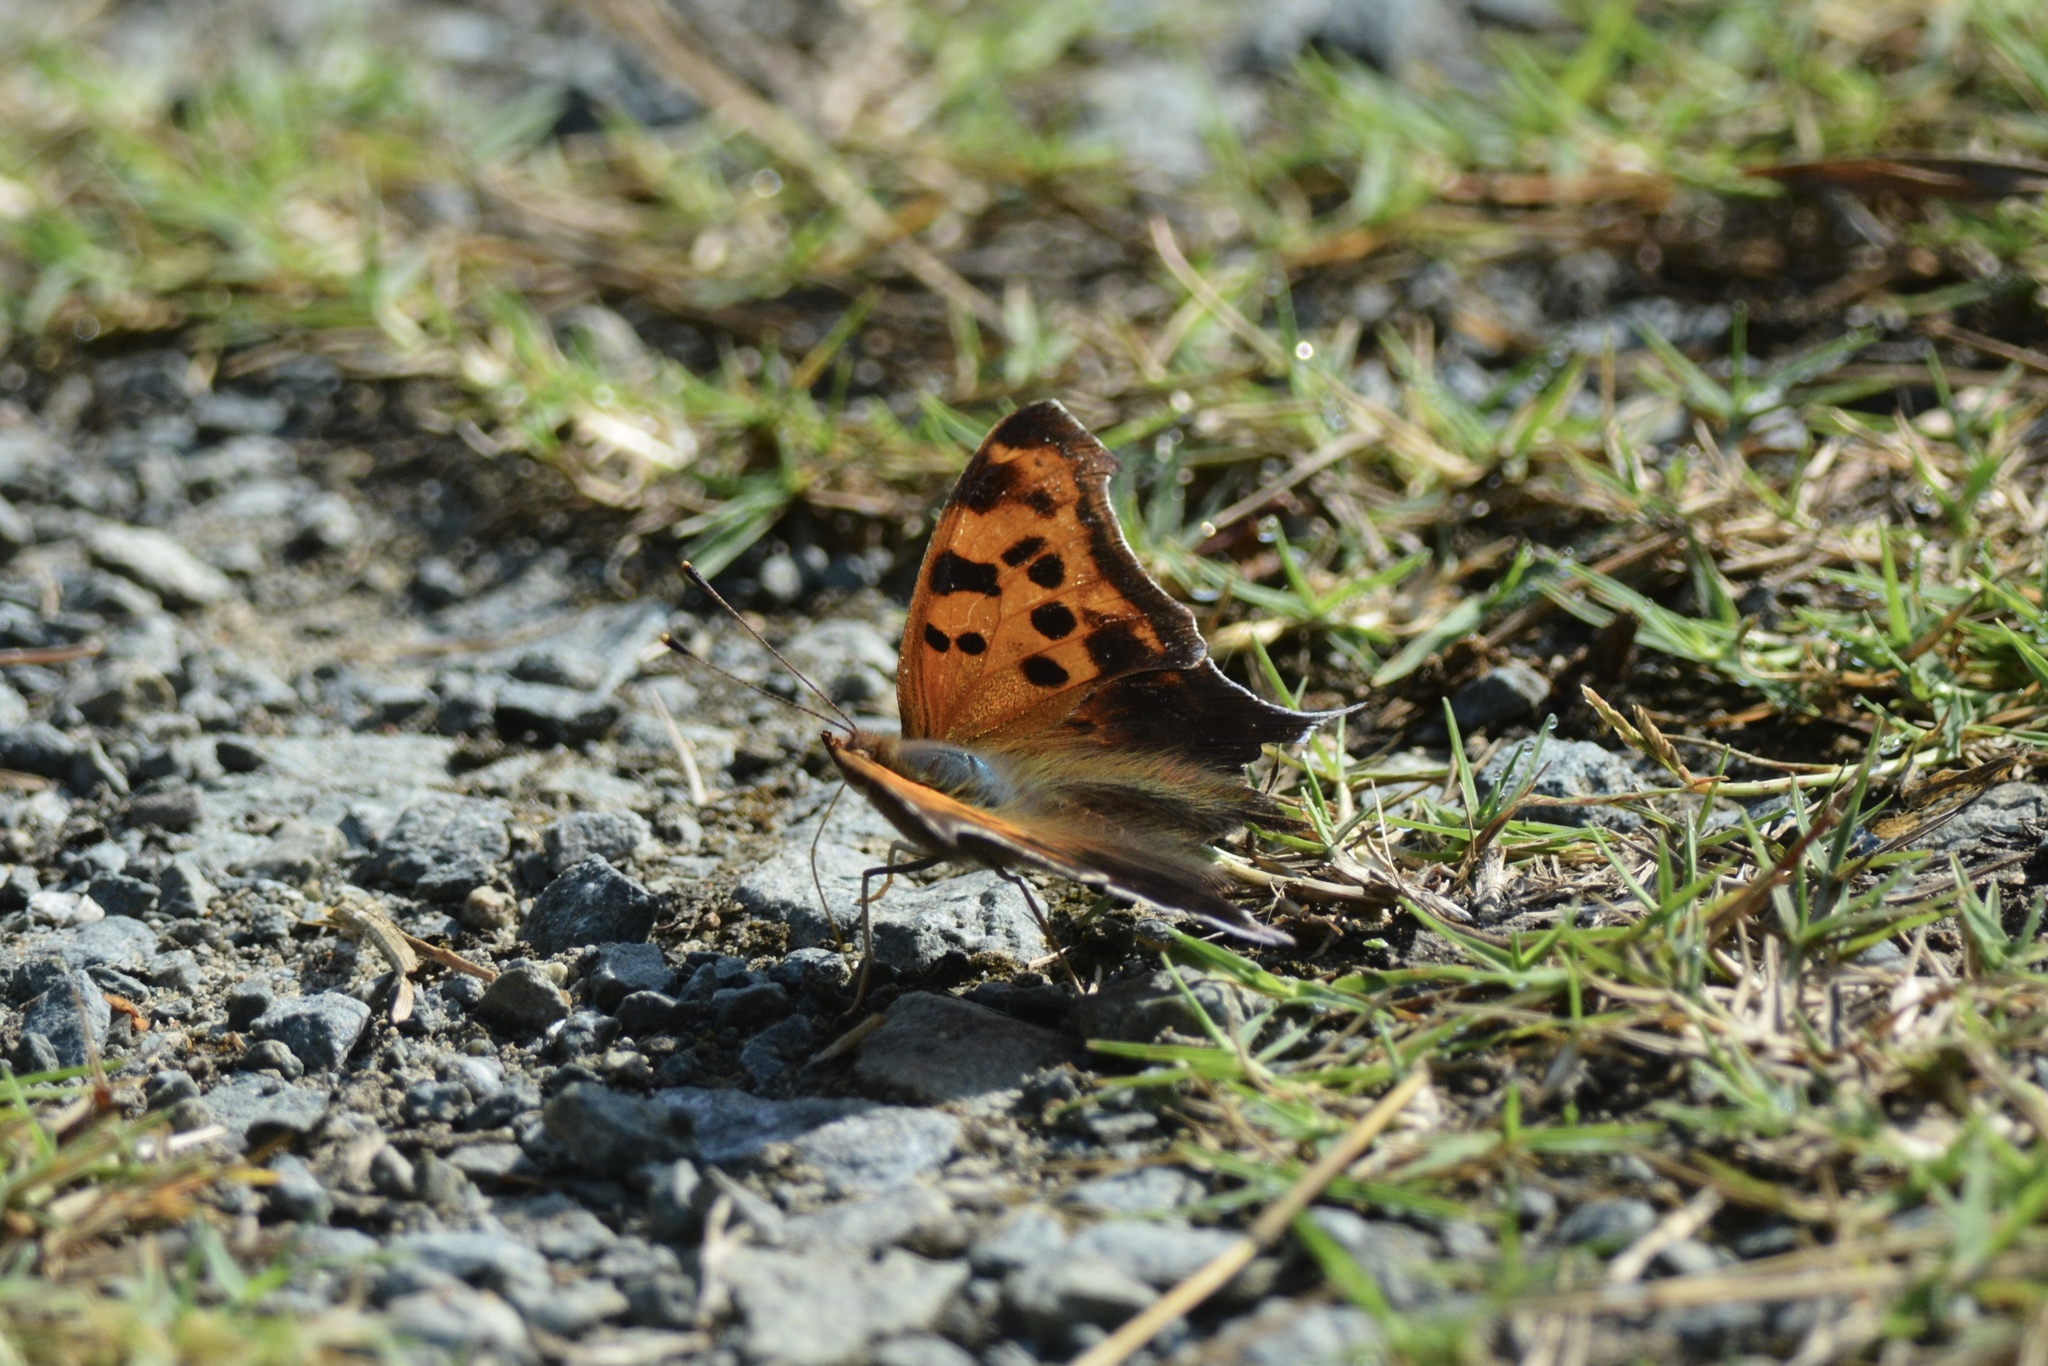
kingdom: Animalia
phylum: Arthropoda
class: Insecta
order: Lepidoptera
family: Nymphalidae
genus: Polygonia
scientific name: Polygonia interrogationis
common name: Question mark
